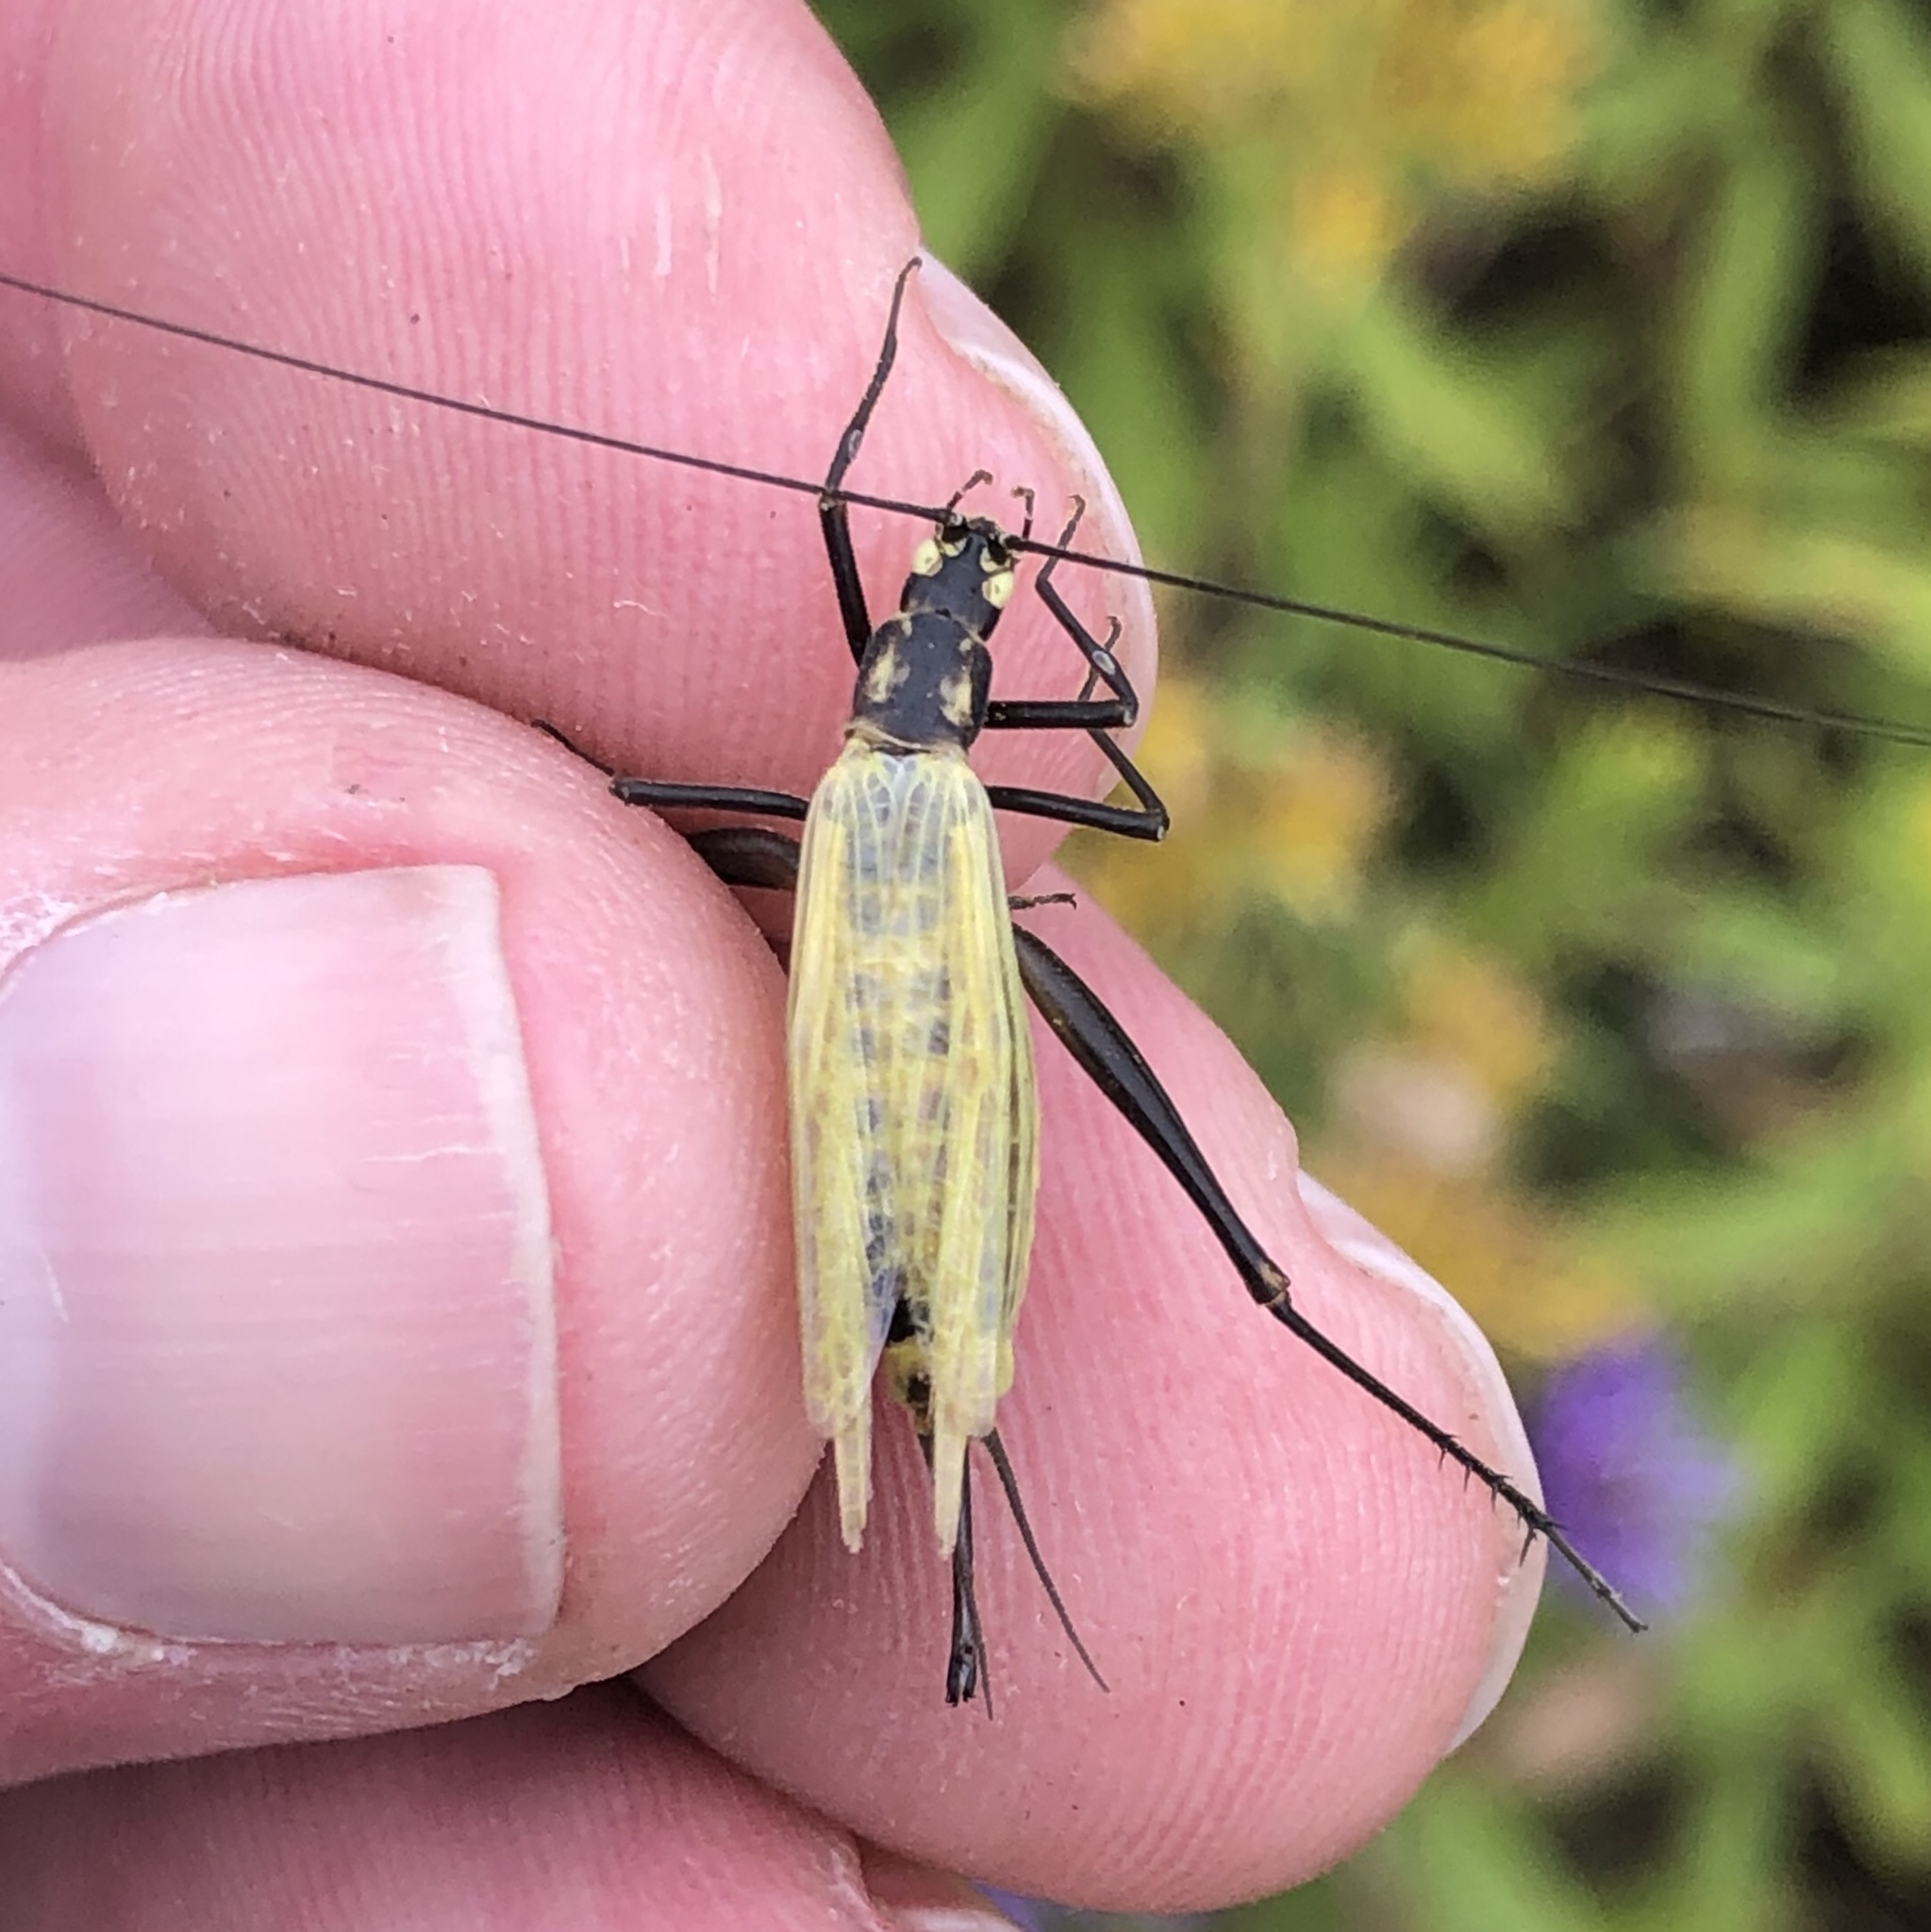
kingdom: Animalia
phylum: Arthropoda
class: Insecta
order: Orthoptera
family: Gryllidae
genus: Oecanthus
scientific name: Oecanthus nigricornis
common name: Black-horned tree cricket
